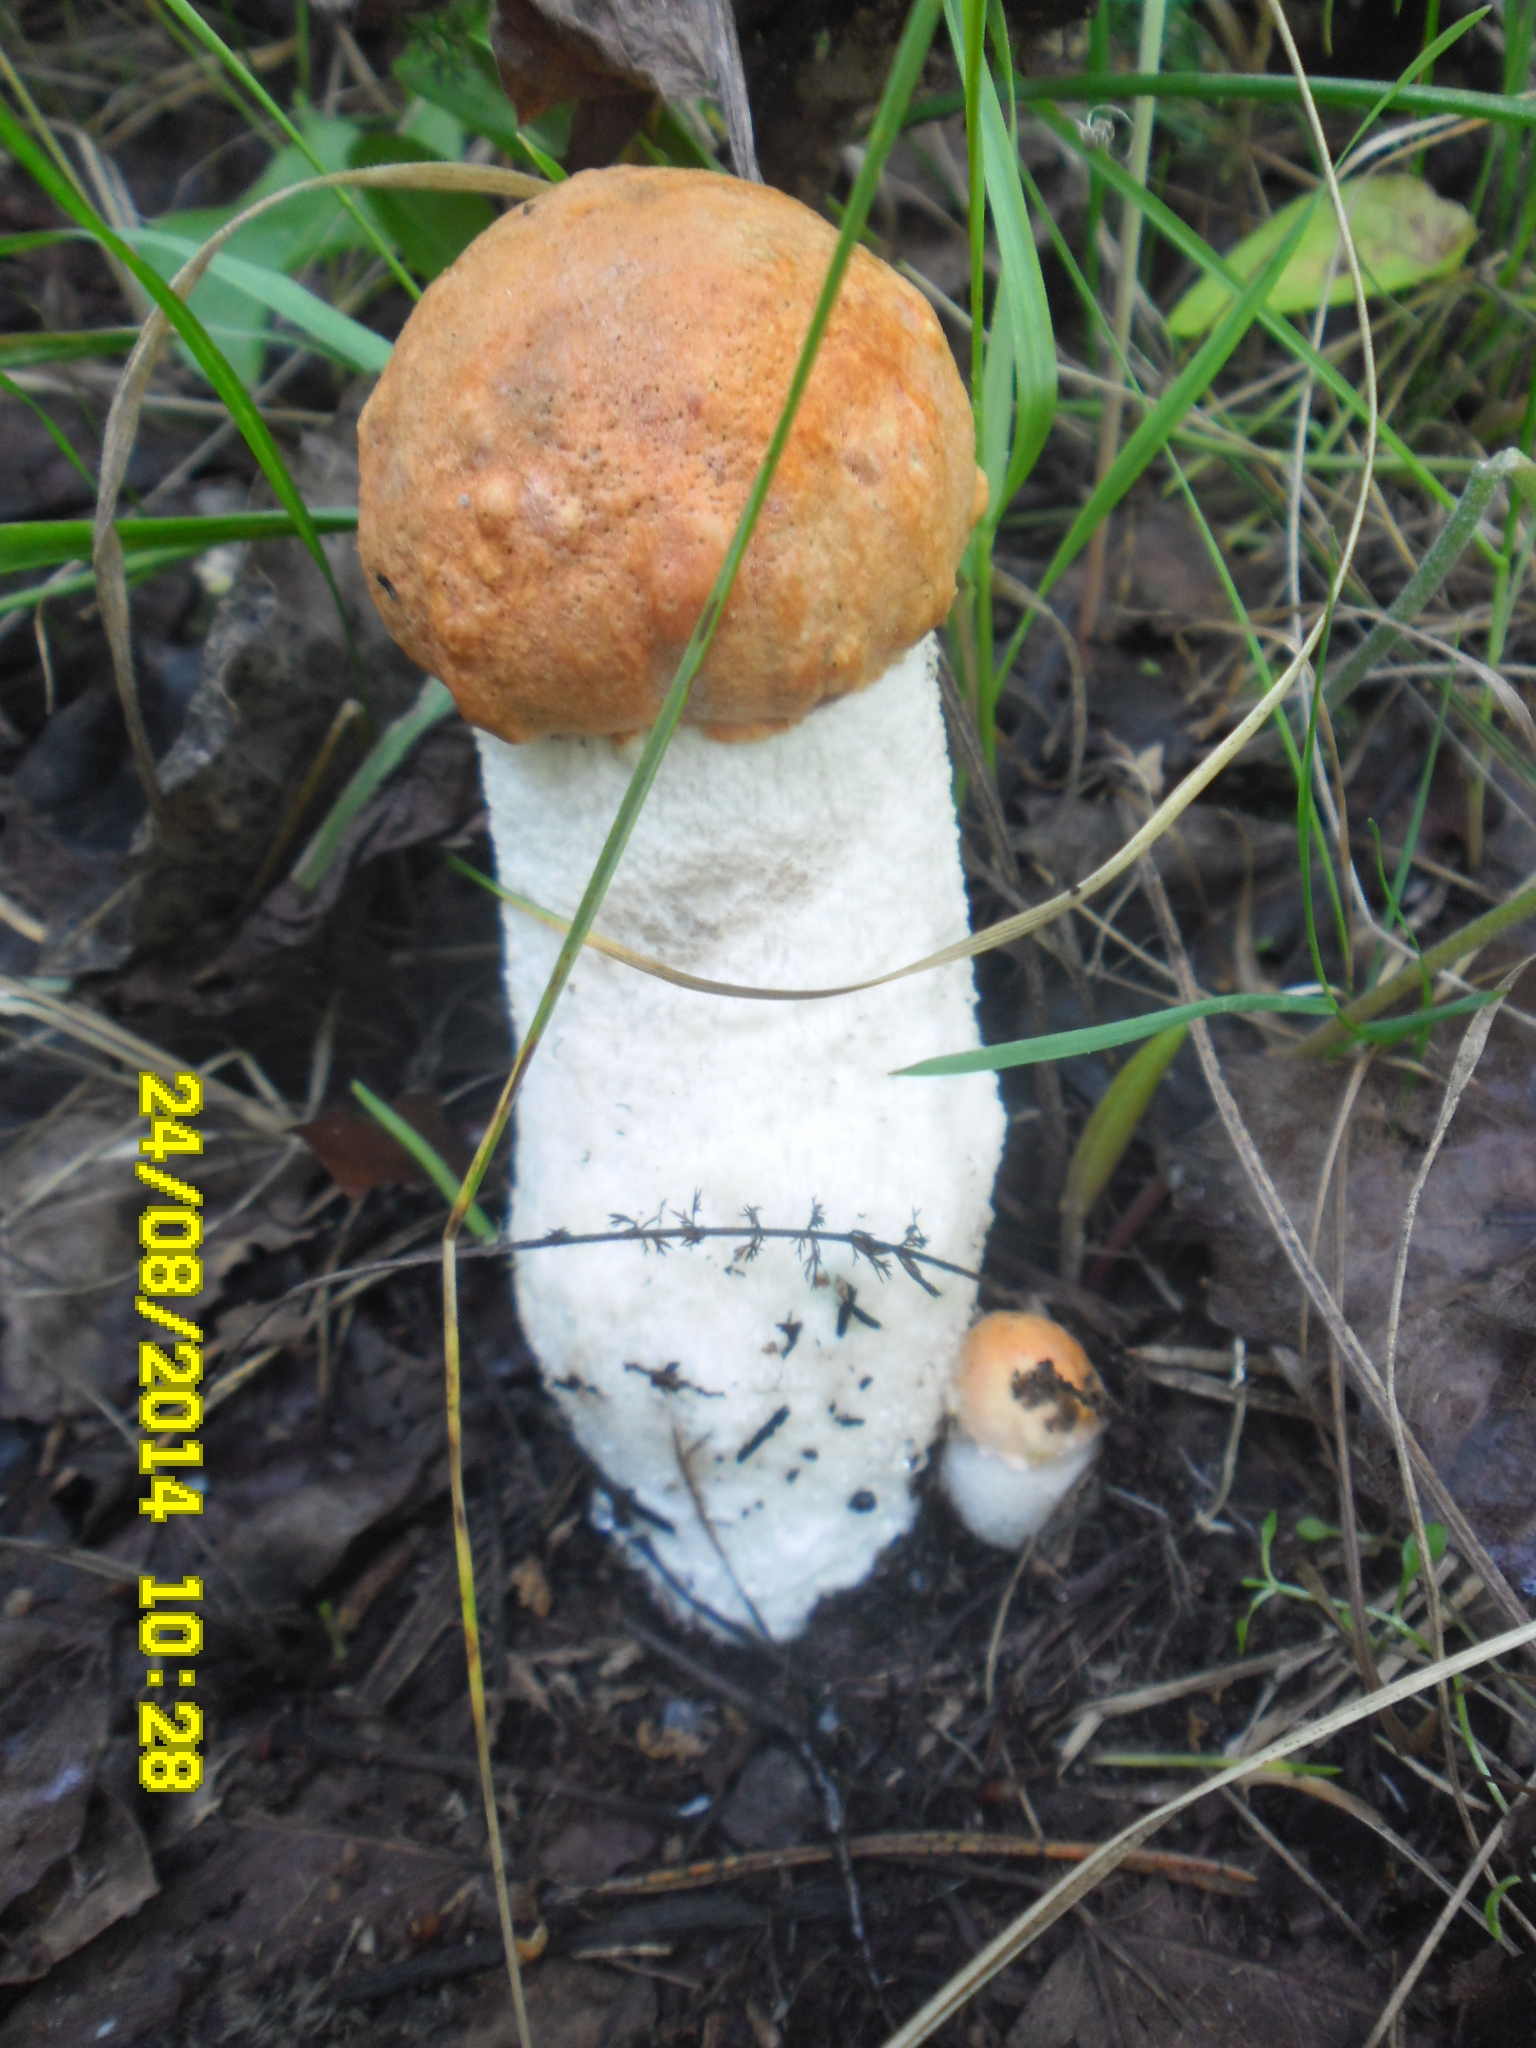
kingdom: Fungi
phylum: Basidiomycota
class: Agaricomycetes
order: Boletales
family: Boletaceae
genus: Leccinum
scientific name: Leccinum albostipitatum
